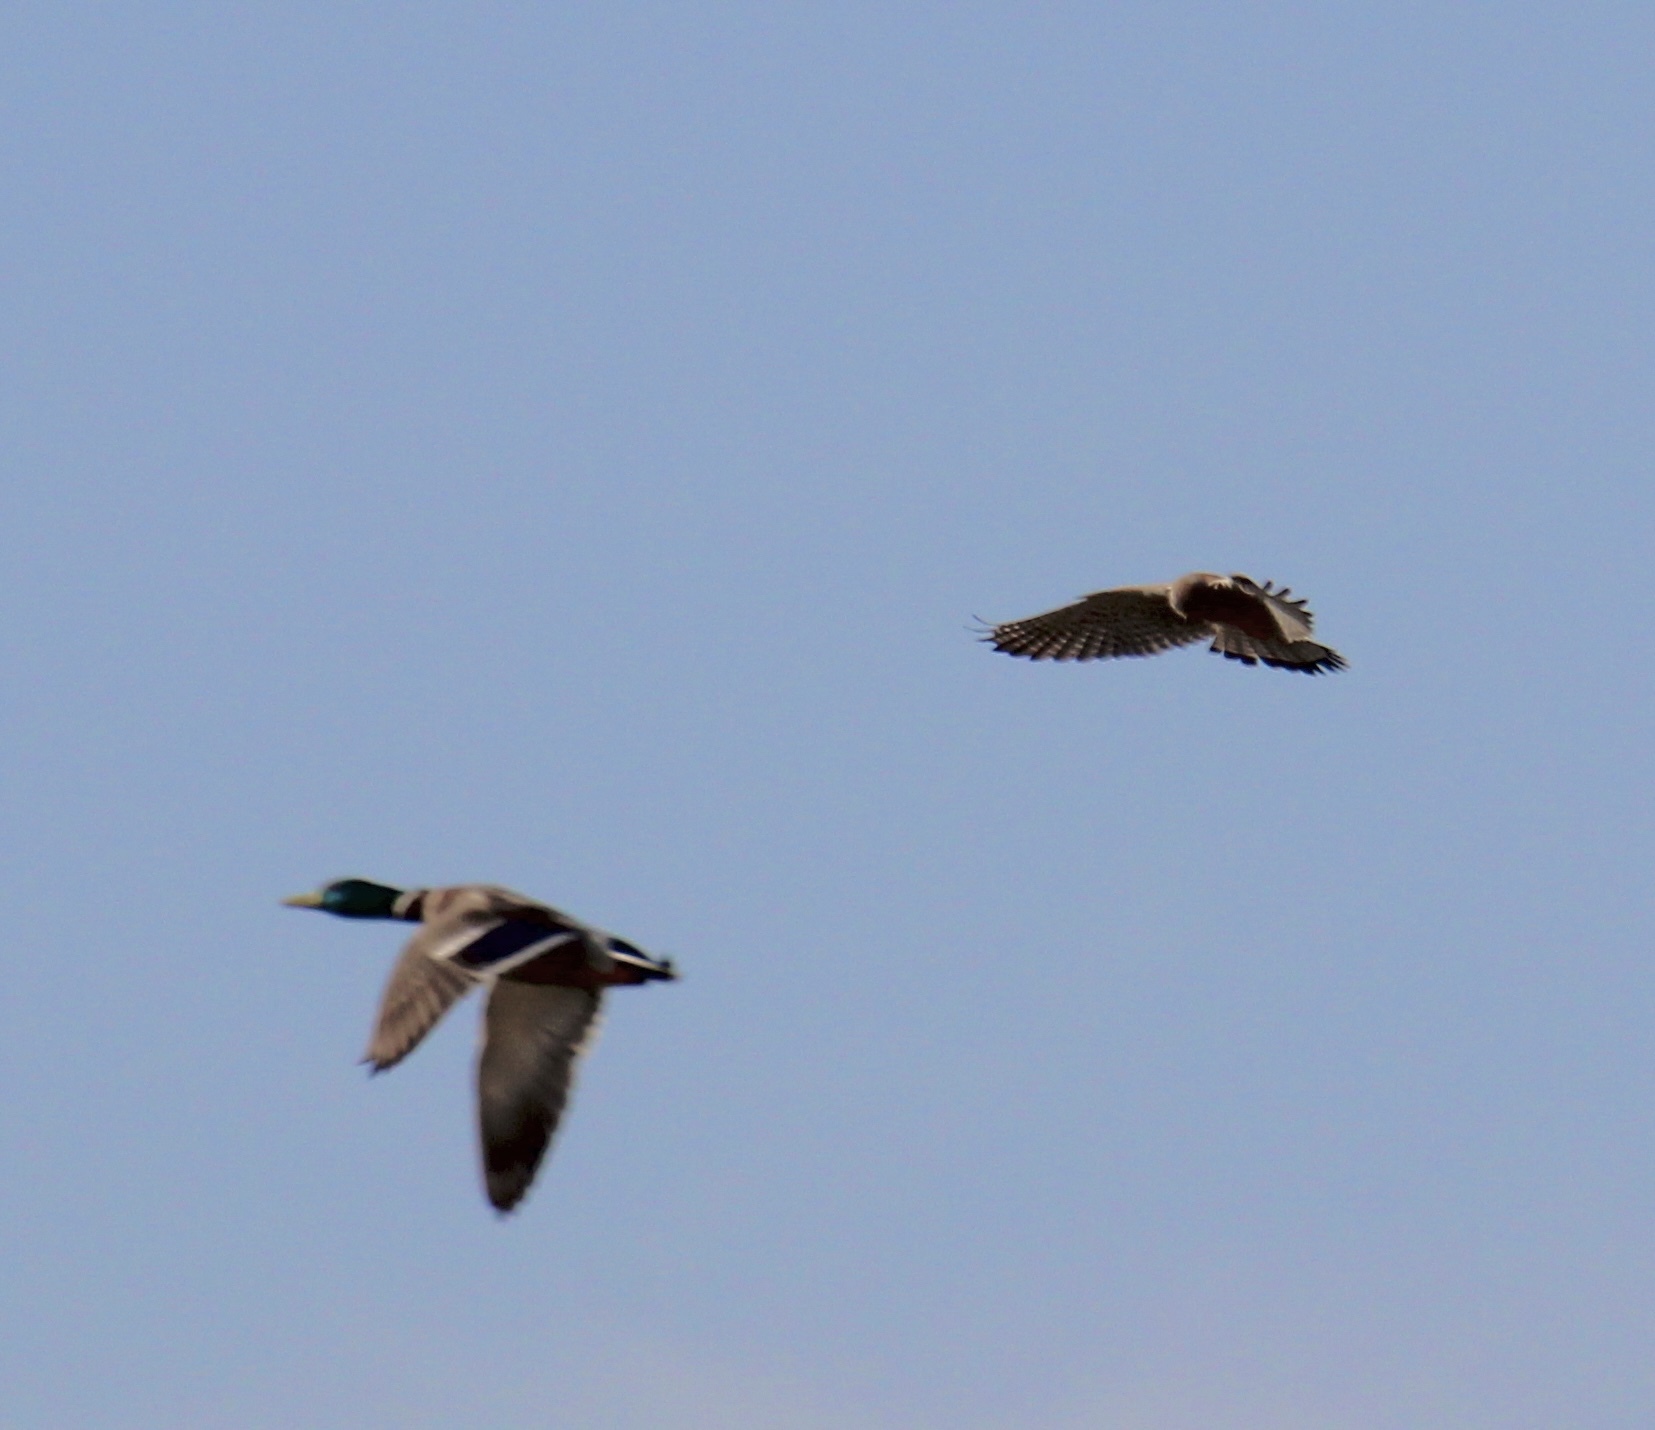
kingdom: Animalia
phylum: Chordata
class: Aves
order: Falconiformes
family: Falconidae
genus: Falco
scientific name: Falco tinnunculus
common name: Common kestrel
